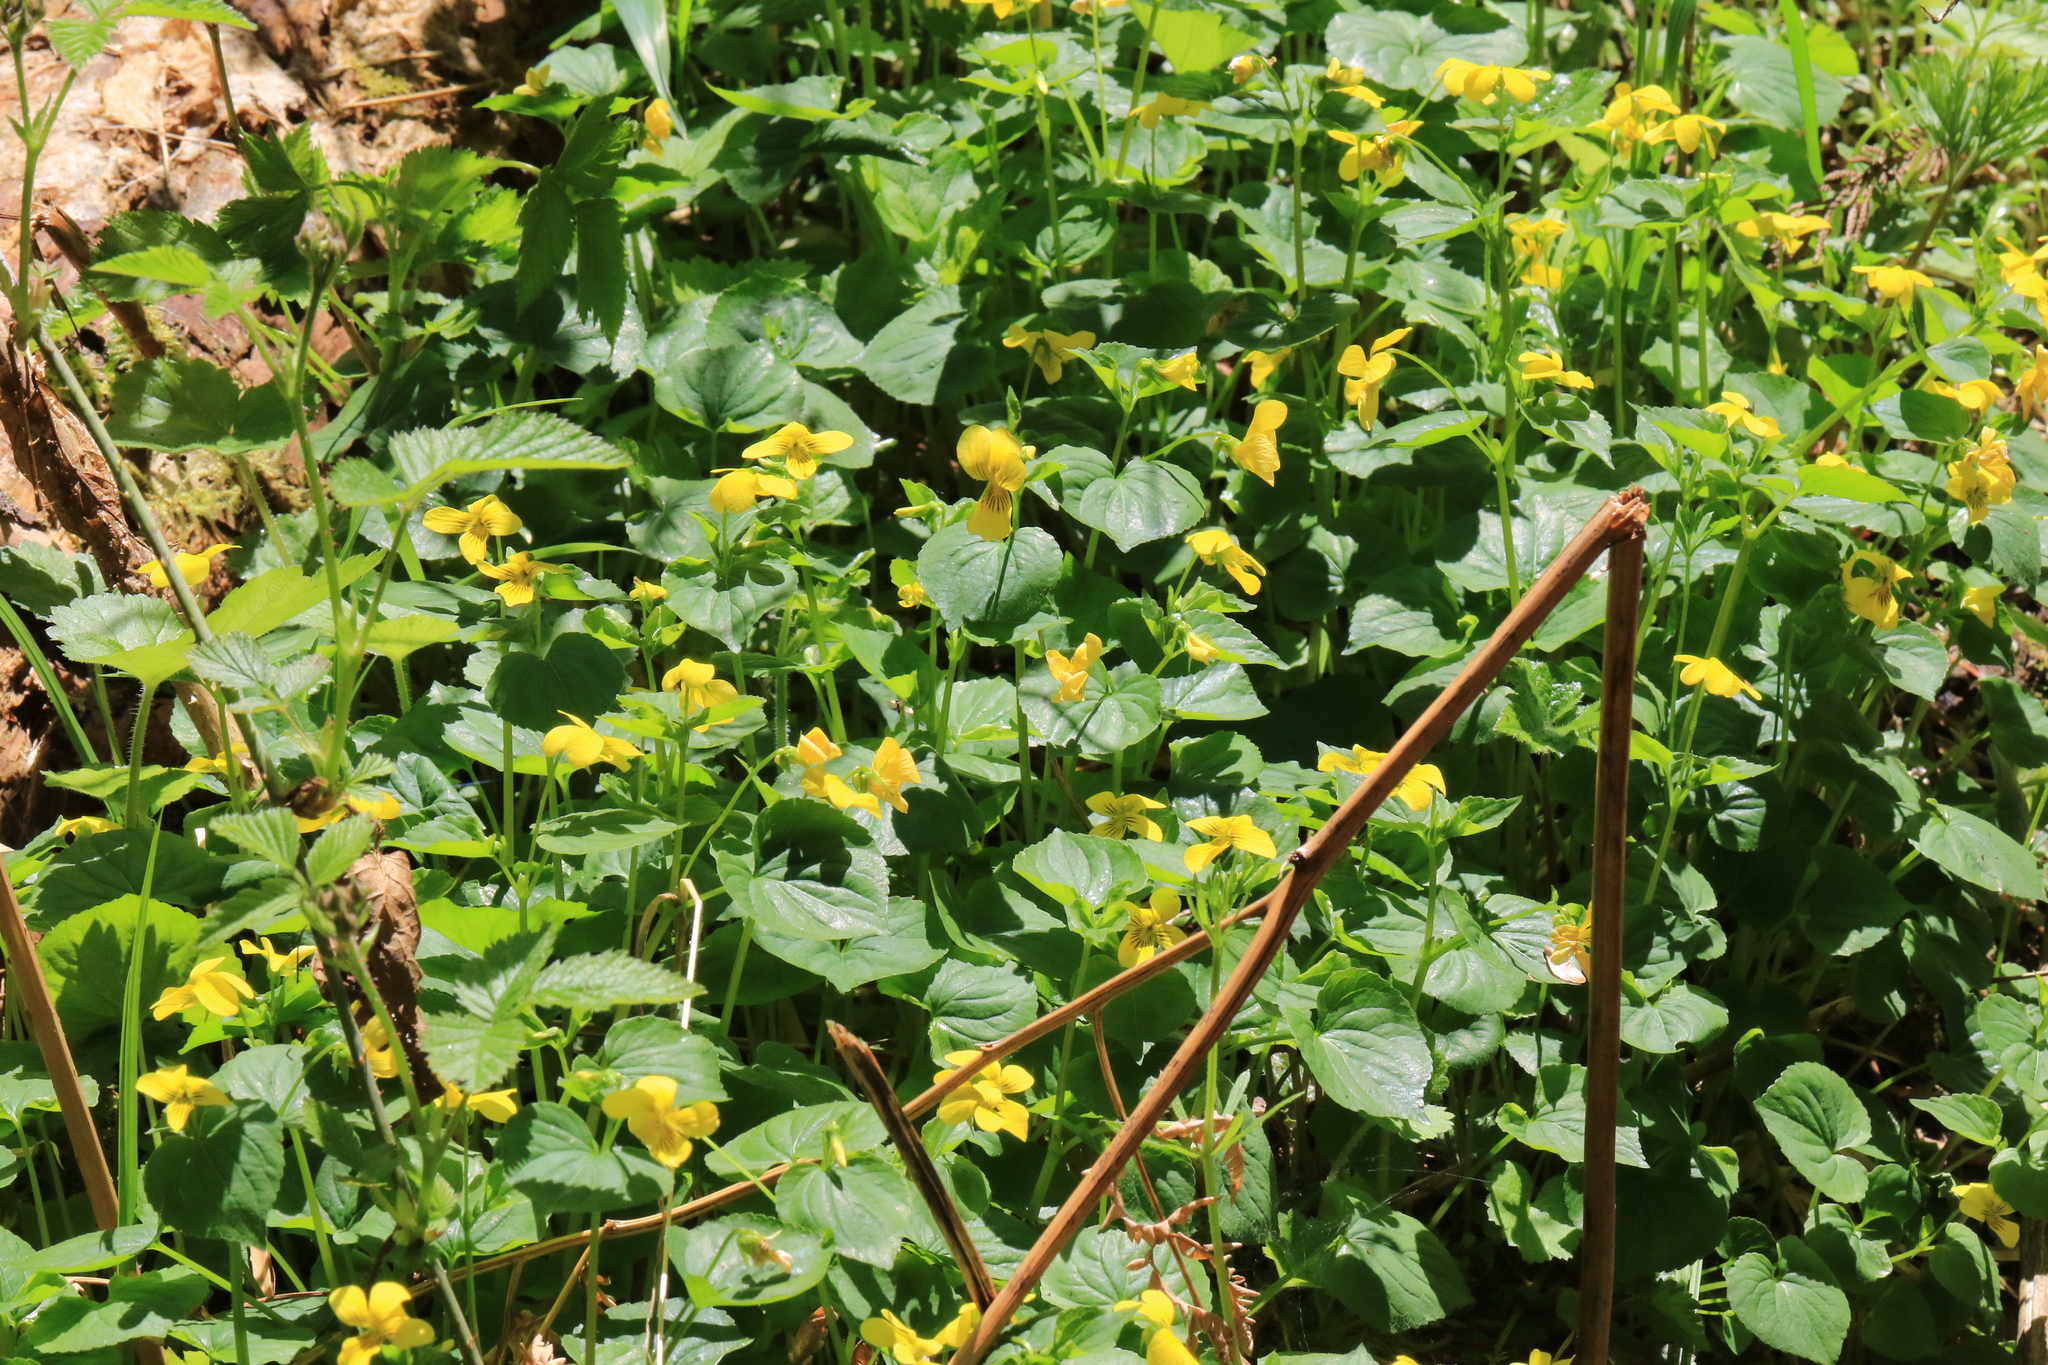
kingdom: Plantae
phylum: Tracheophyta
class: Magnoliopsida
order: Malpighiales
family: Violaceae
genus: Viola
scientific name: Viola glabella
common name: Stream violet
